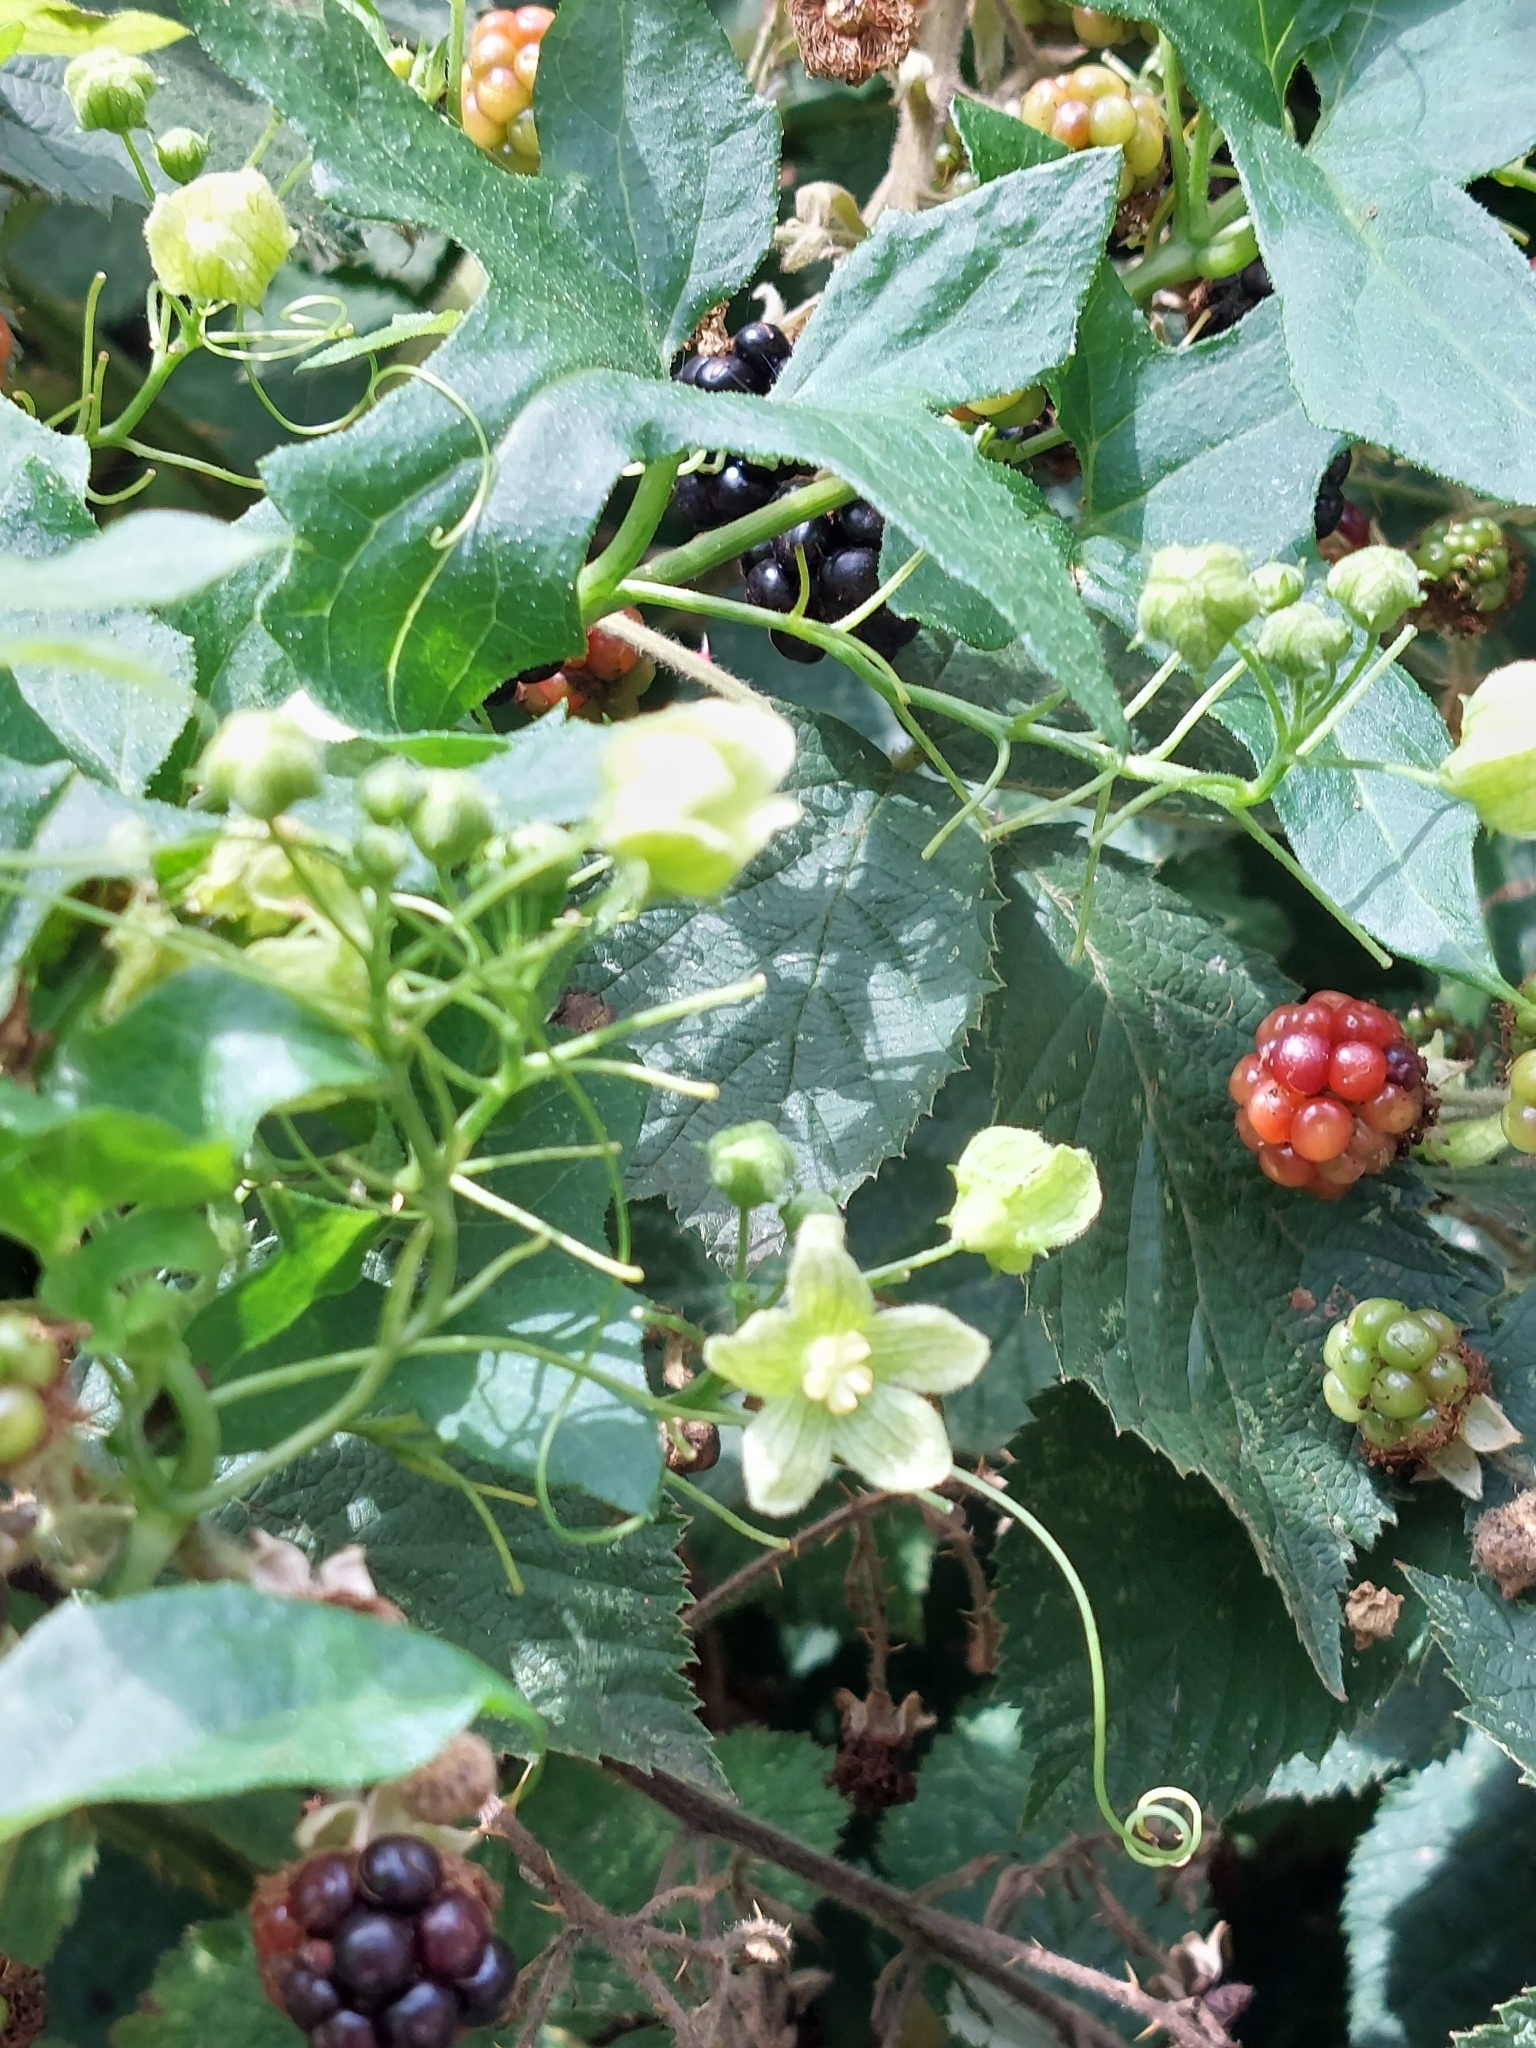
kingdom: Plantae
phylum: Tracheophyta
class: Magnoliopsida
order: Cucurbitales
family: Cucurbitaceae
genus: Bryonia
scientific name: Bryonia cretica
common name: Cretan bryony
